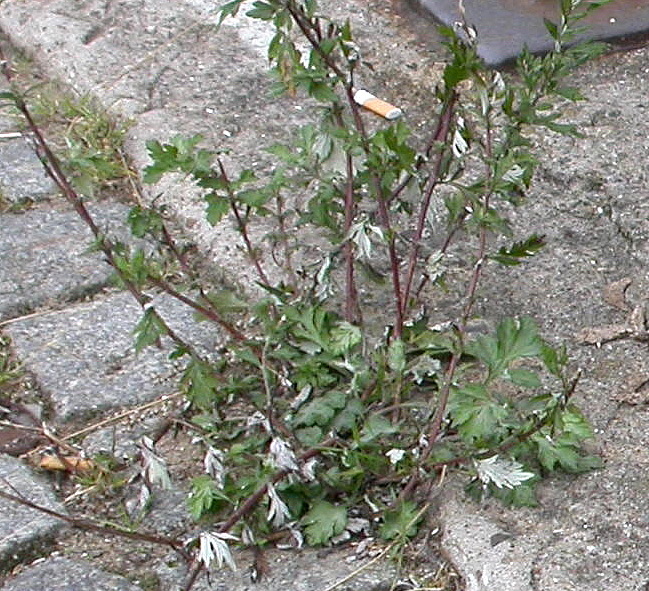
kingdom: Plantae
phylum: Tracheophyta
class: Magnoliopsida
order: Asterales
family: Asteraceae
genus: Artemisia
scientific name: Artemisia vulgaris
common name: Mugwort
